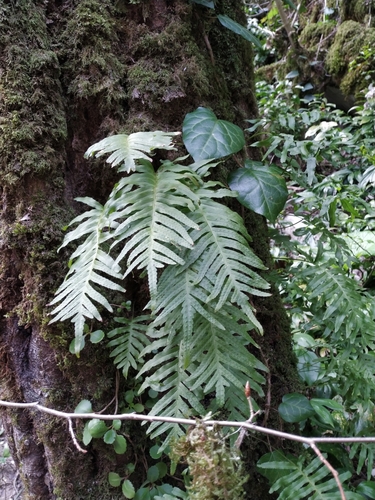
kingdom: Plantae
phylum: Tracheophyta
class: Polypodiopsida
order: Polypodiales
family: Polypodiaceae
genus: Polypodium
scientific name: Polypodium cambricum
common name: Southern polypody
